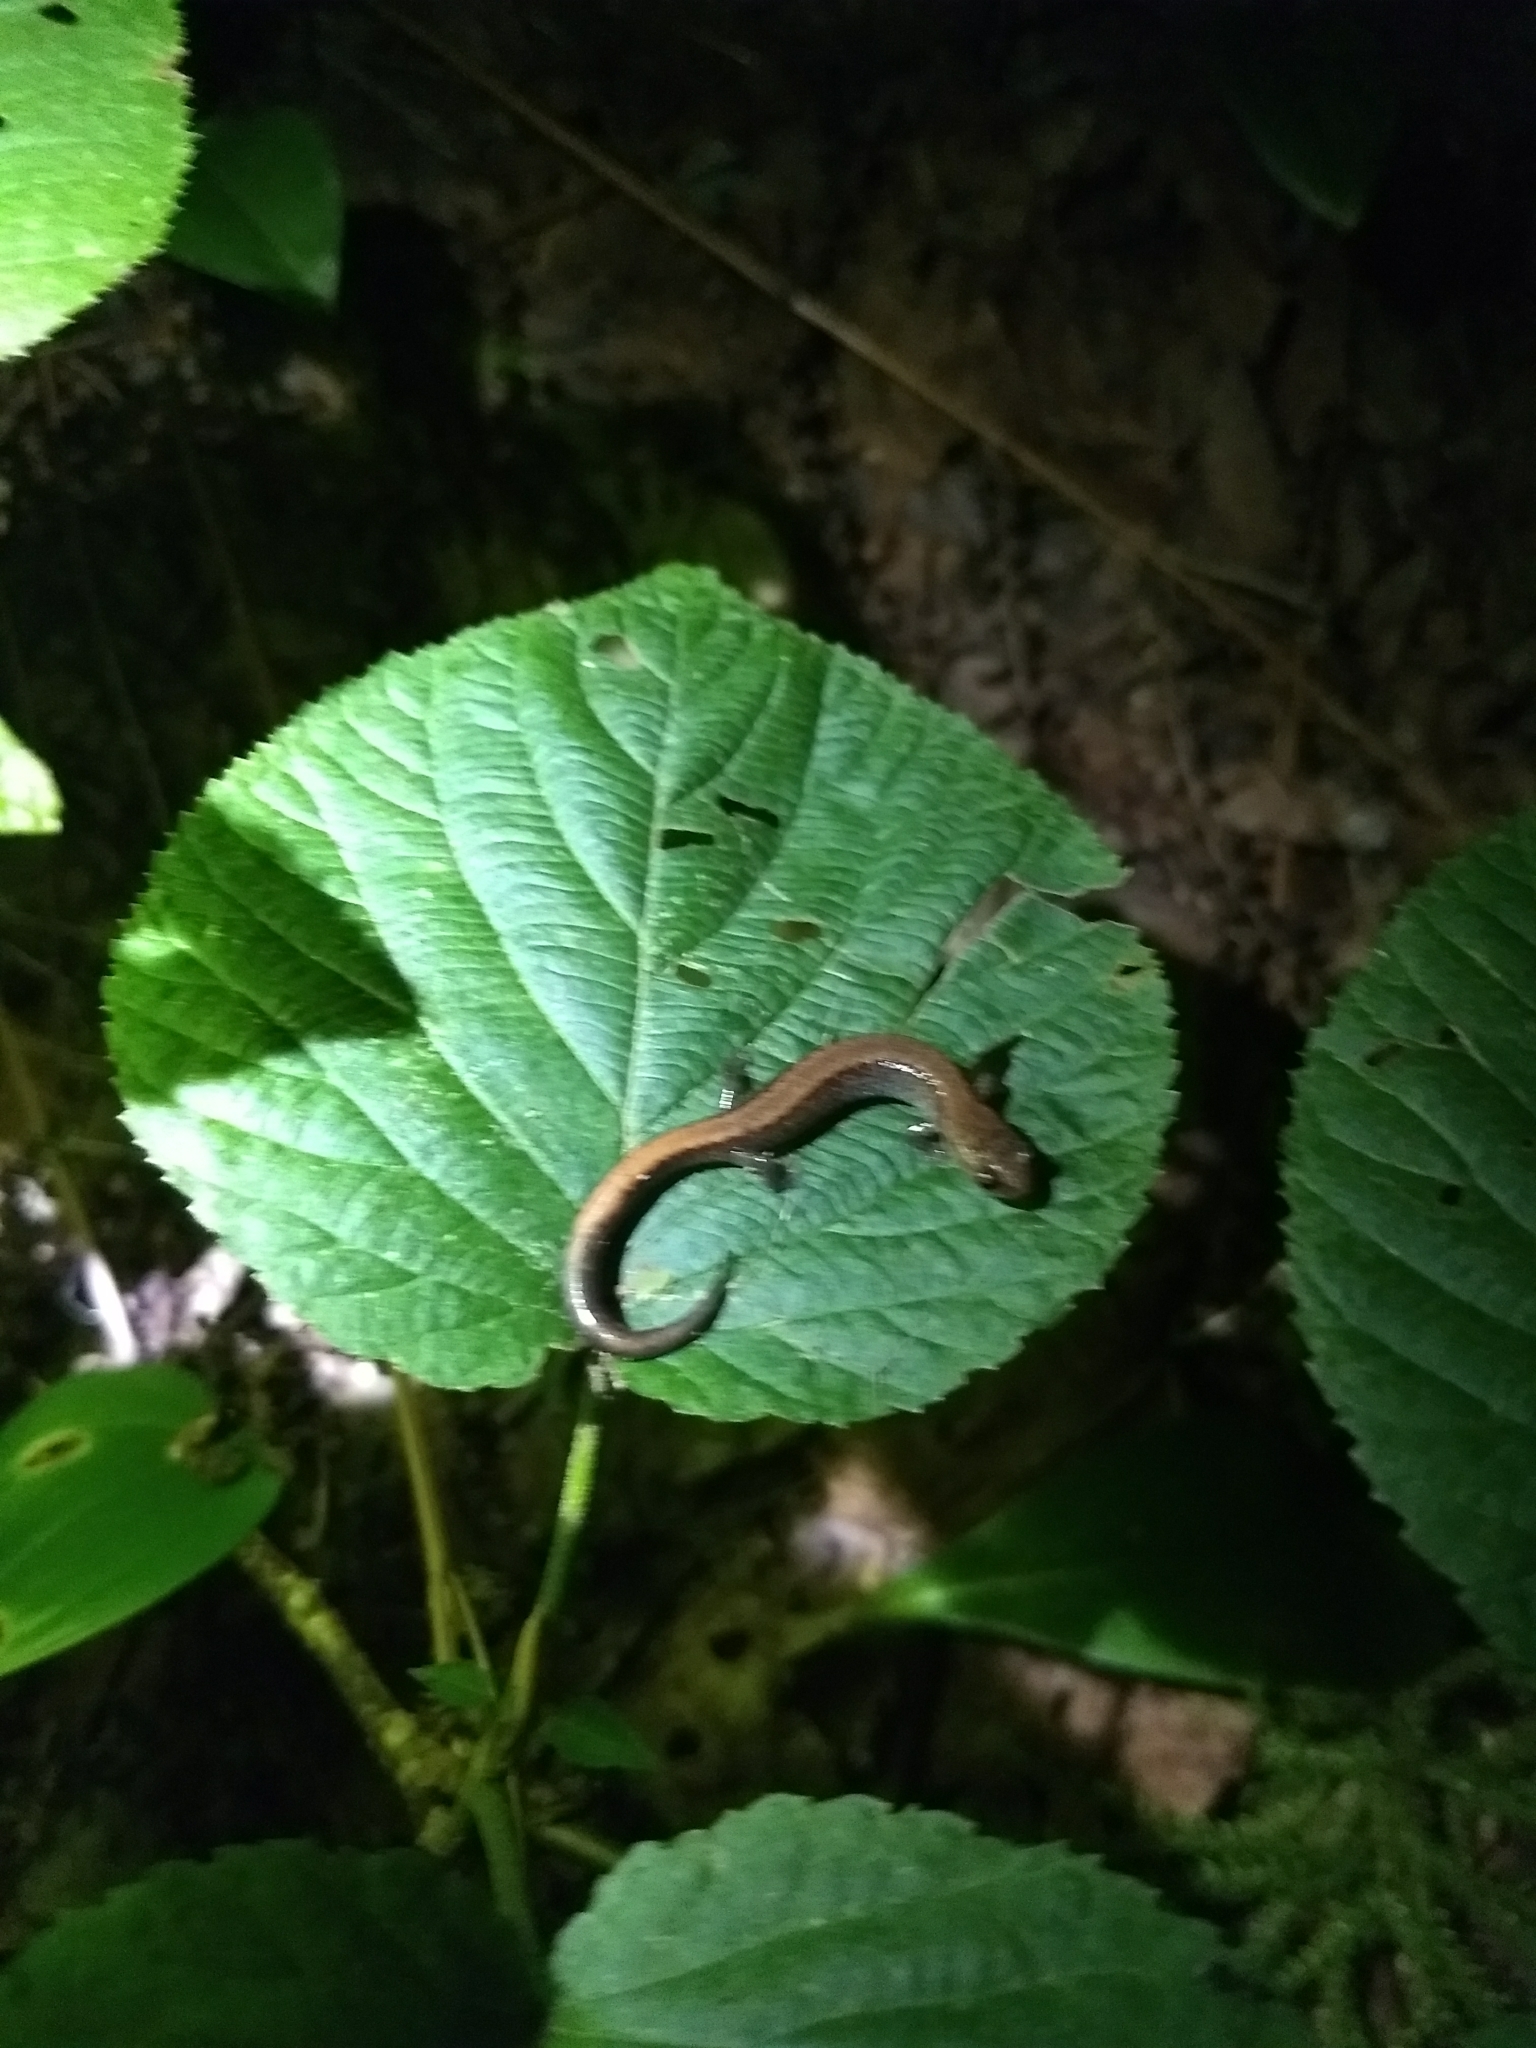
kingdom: Animalia
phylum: Chordata
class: Amphibia
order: Caudata
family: Plethodontidae
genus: Plethodon
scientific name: Plethodon cinereus
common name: Redback salamander
